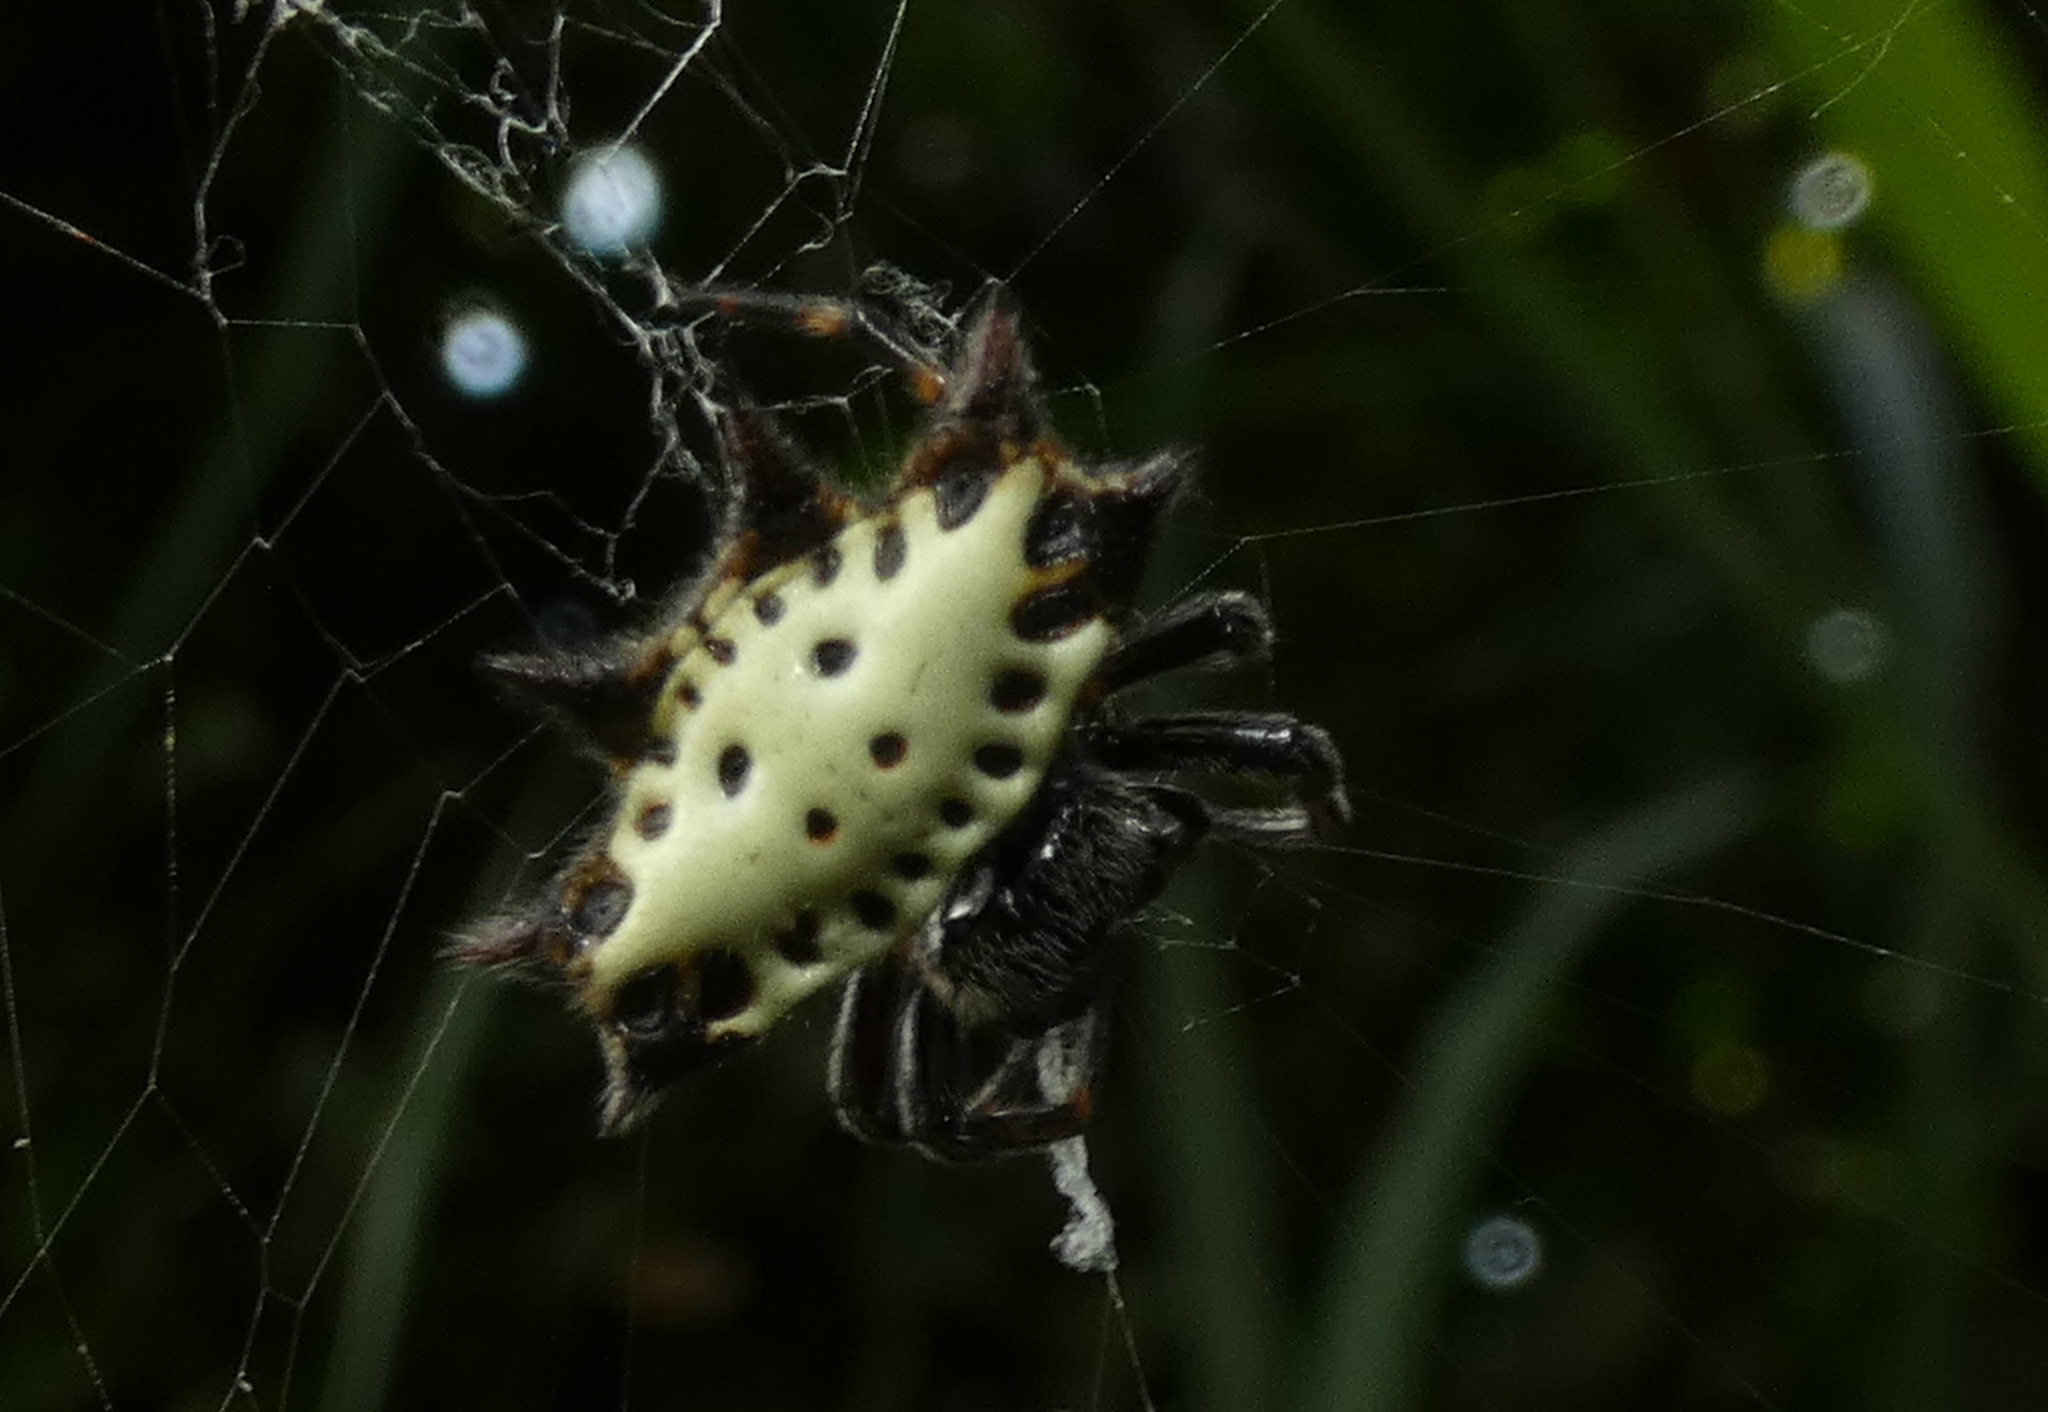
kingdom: Animalia
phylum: Arthropoda
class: Arachnida
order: Araneae
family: Araneidae
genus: Gasteracantha
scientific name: Gasteracantha cancriformis
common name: Orb weavers
